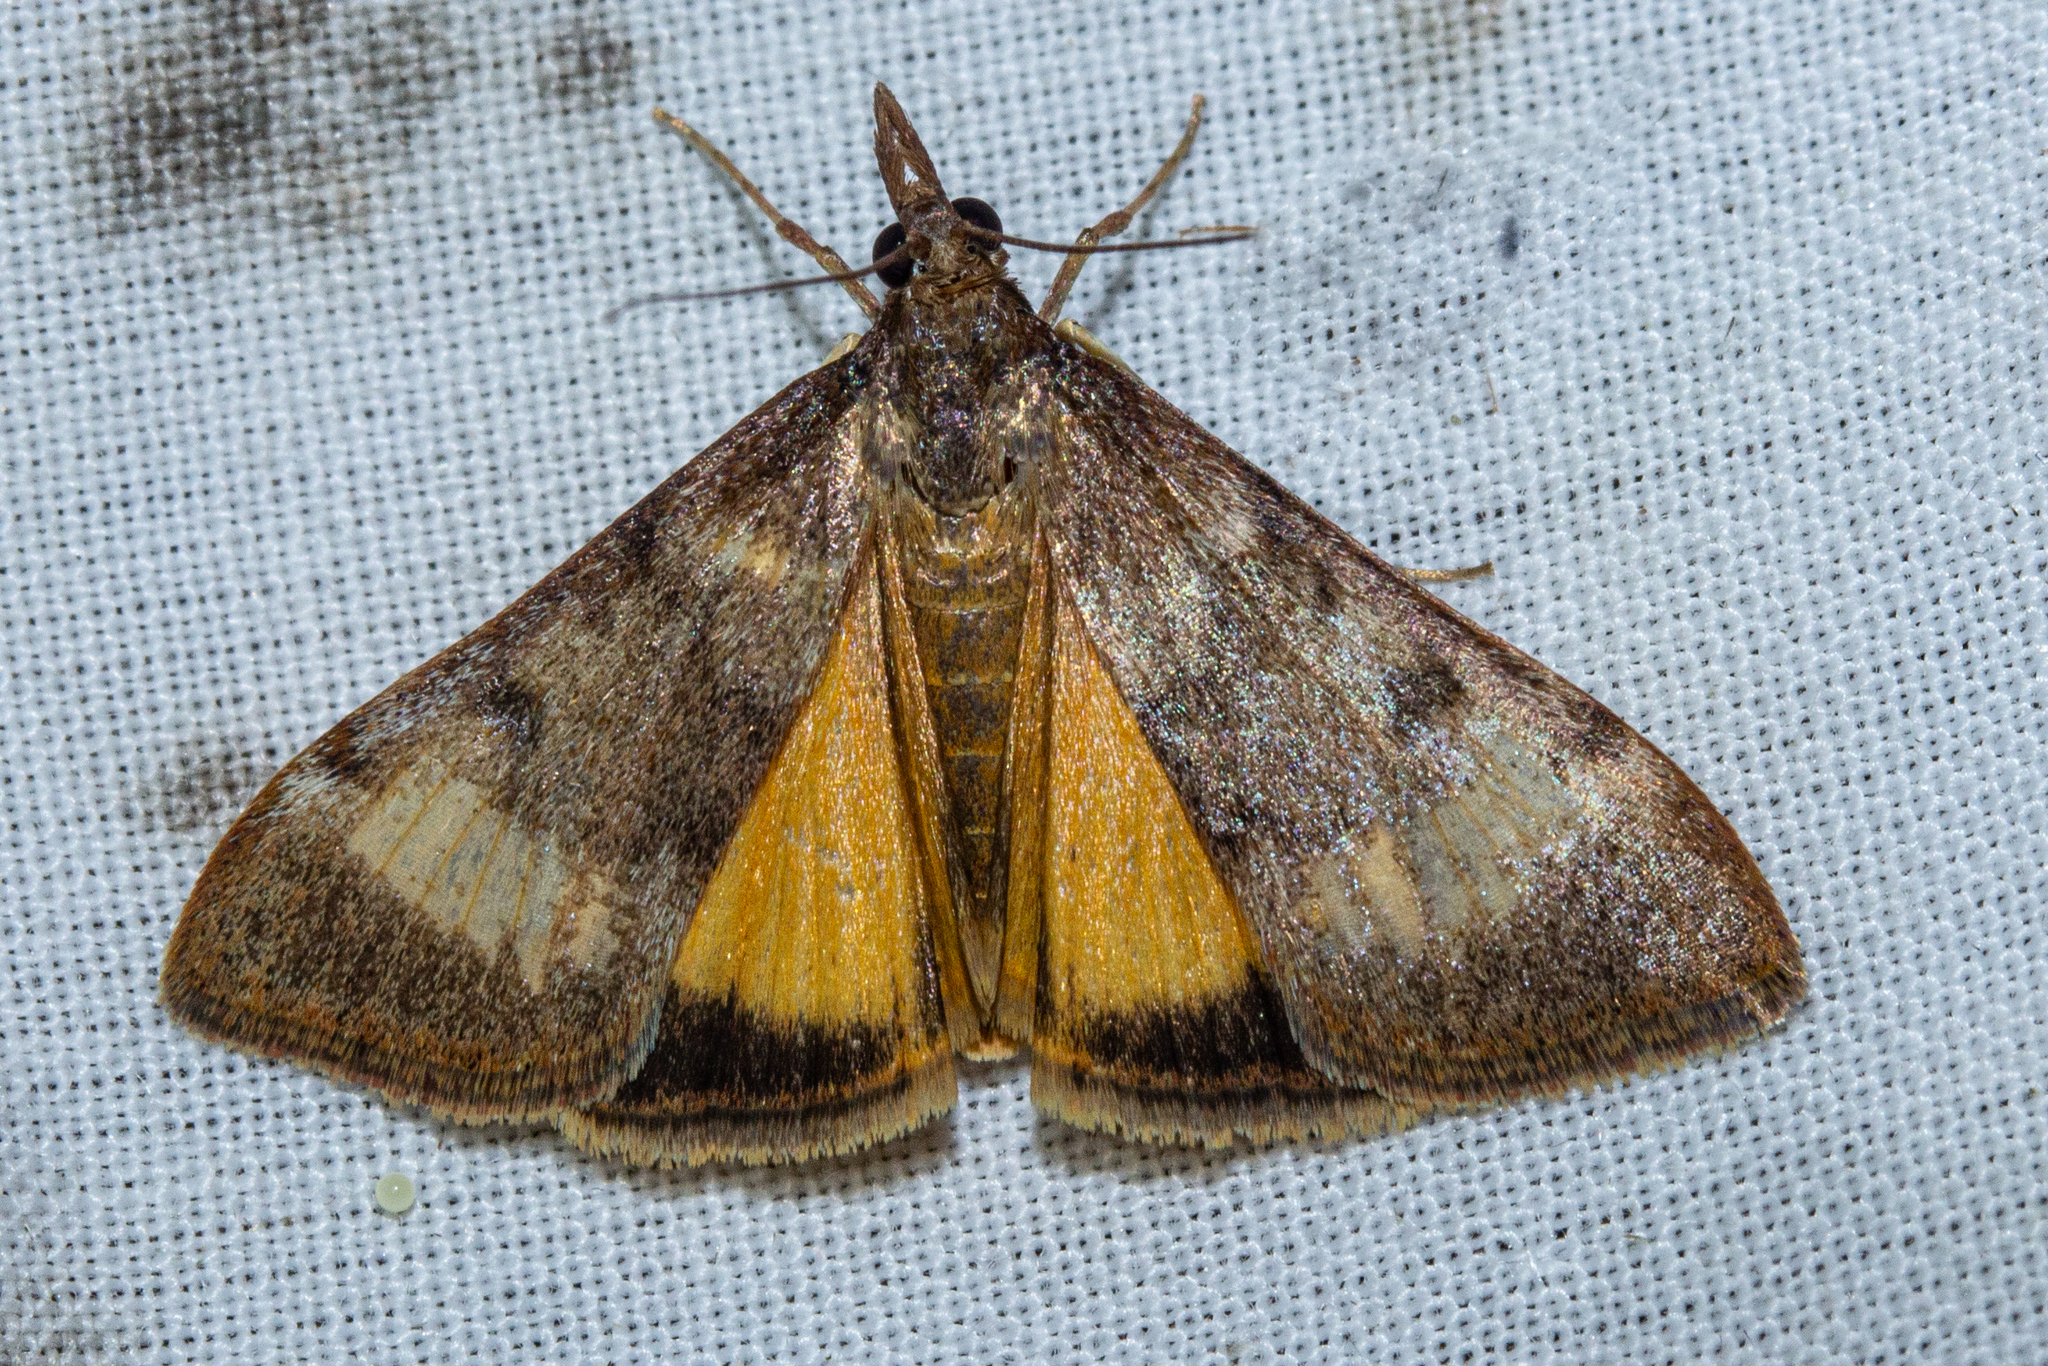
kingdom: Animalia
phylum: Arthropoda
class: Insecta
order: Lepidoptera
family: Crambidae
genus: Uresiphita
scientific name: Uresiphita
